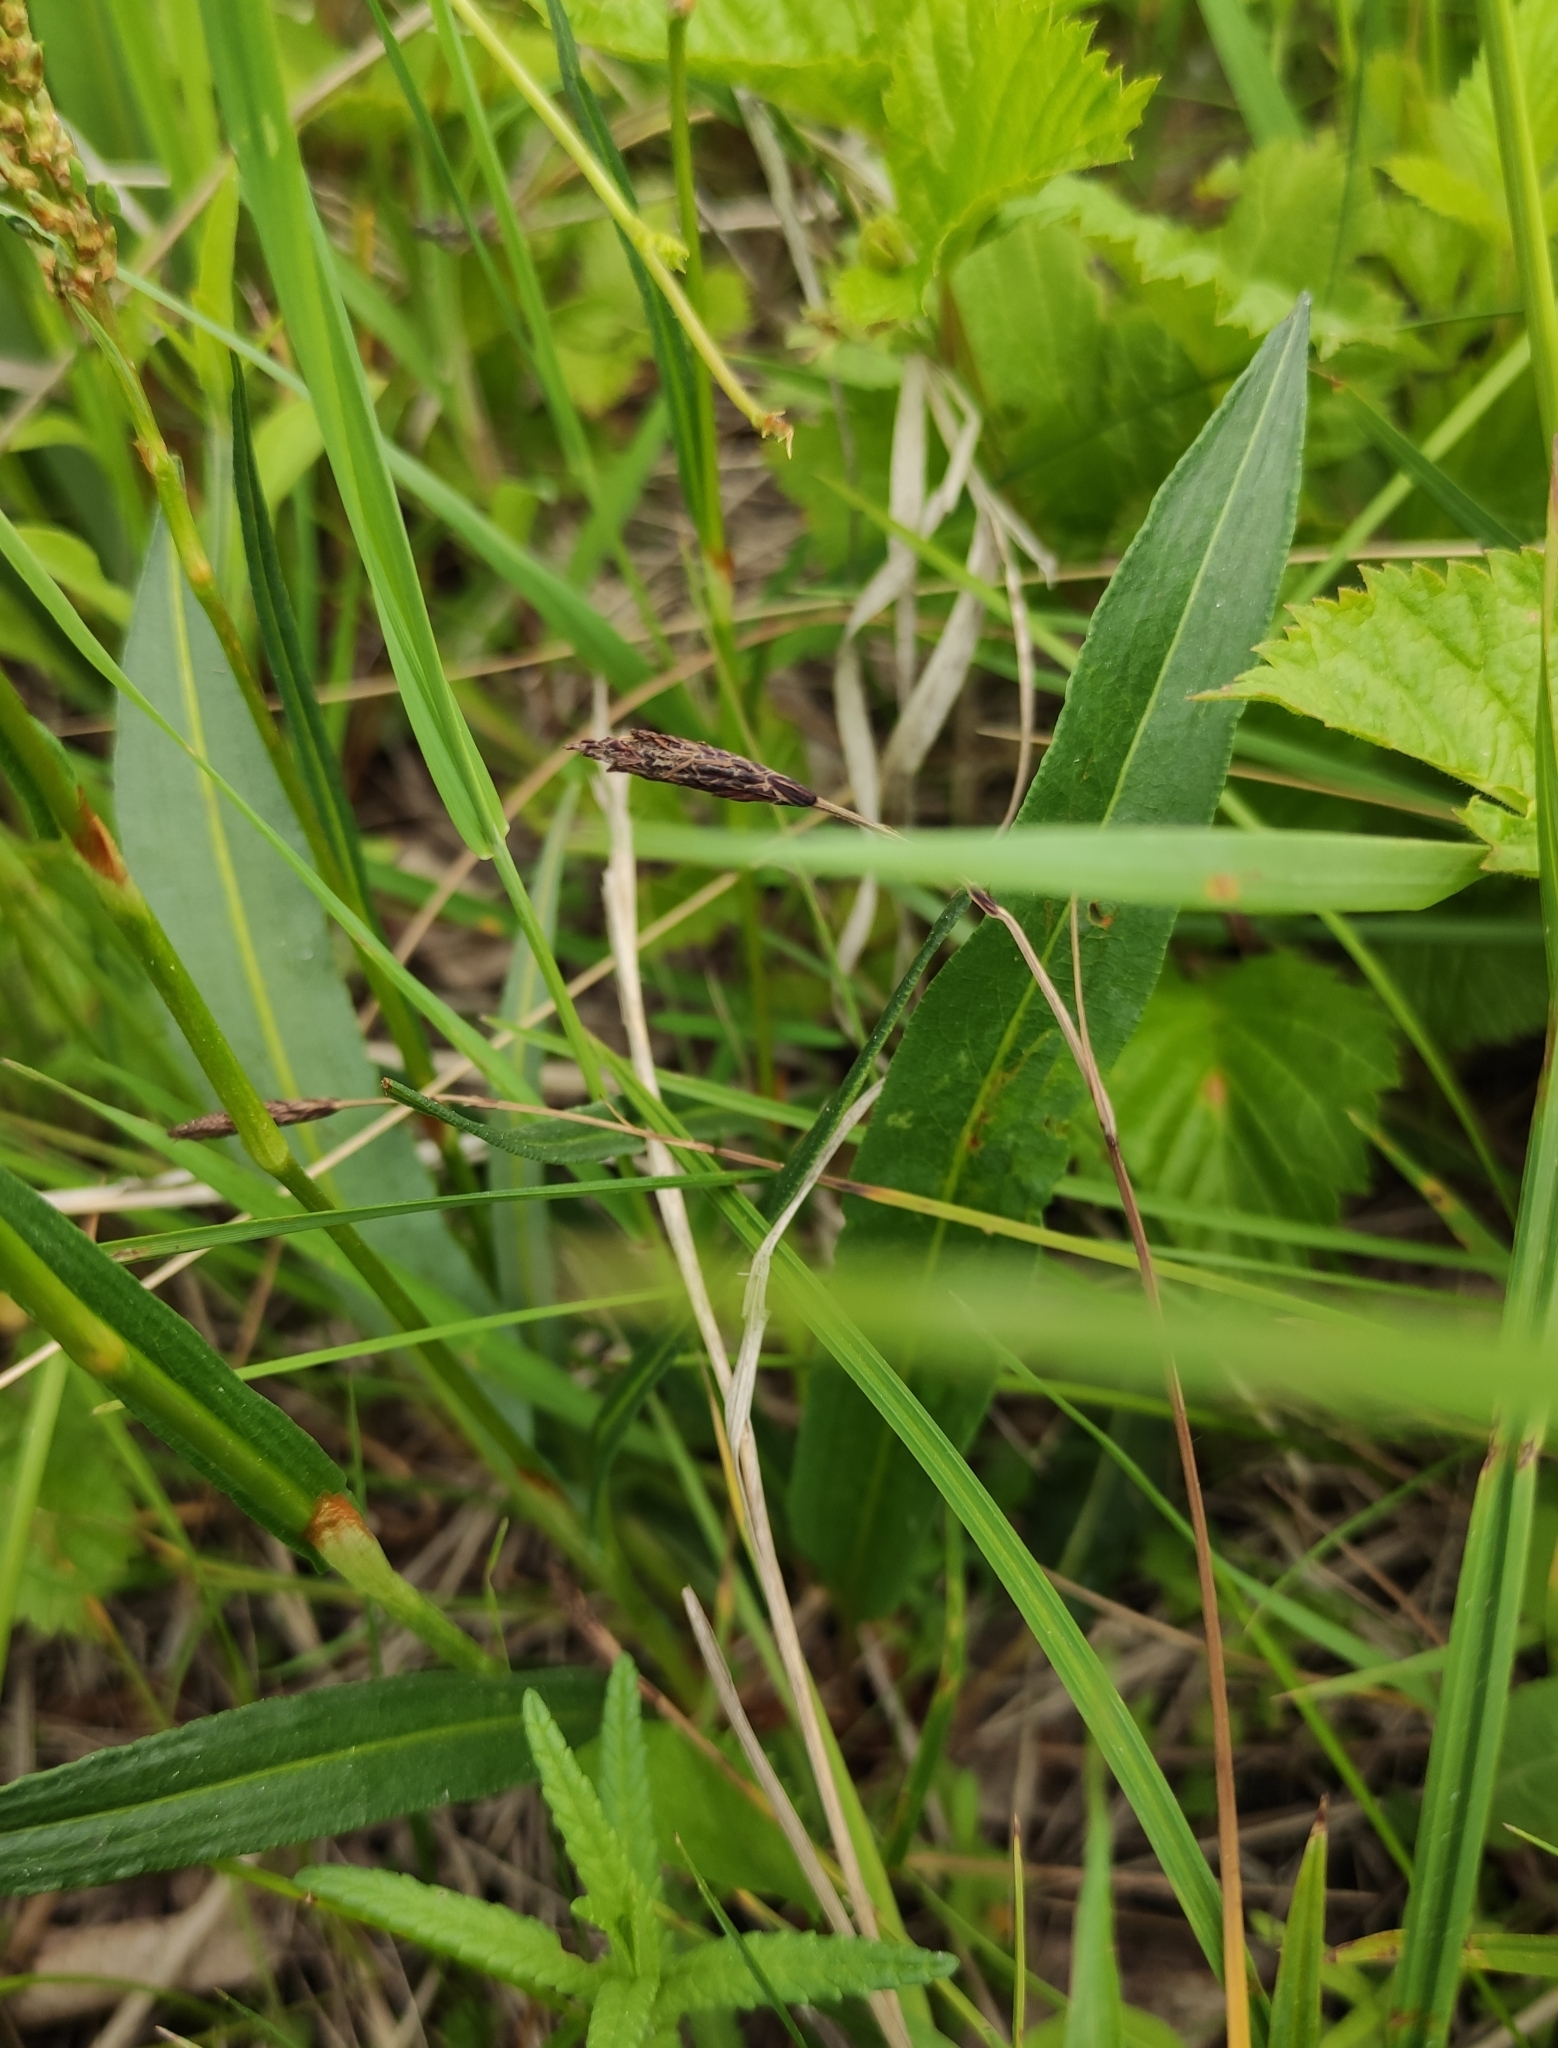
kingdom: Plantae
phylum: Tracheophyta
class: Magnoliopsida
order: Caryophyllales
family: Polygonaceae
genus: Bistorta
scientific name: Bistorta vivipara
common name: Alpine bistort
